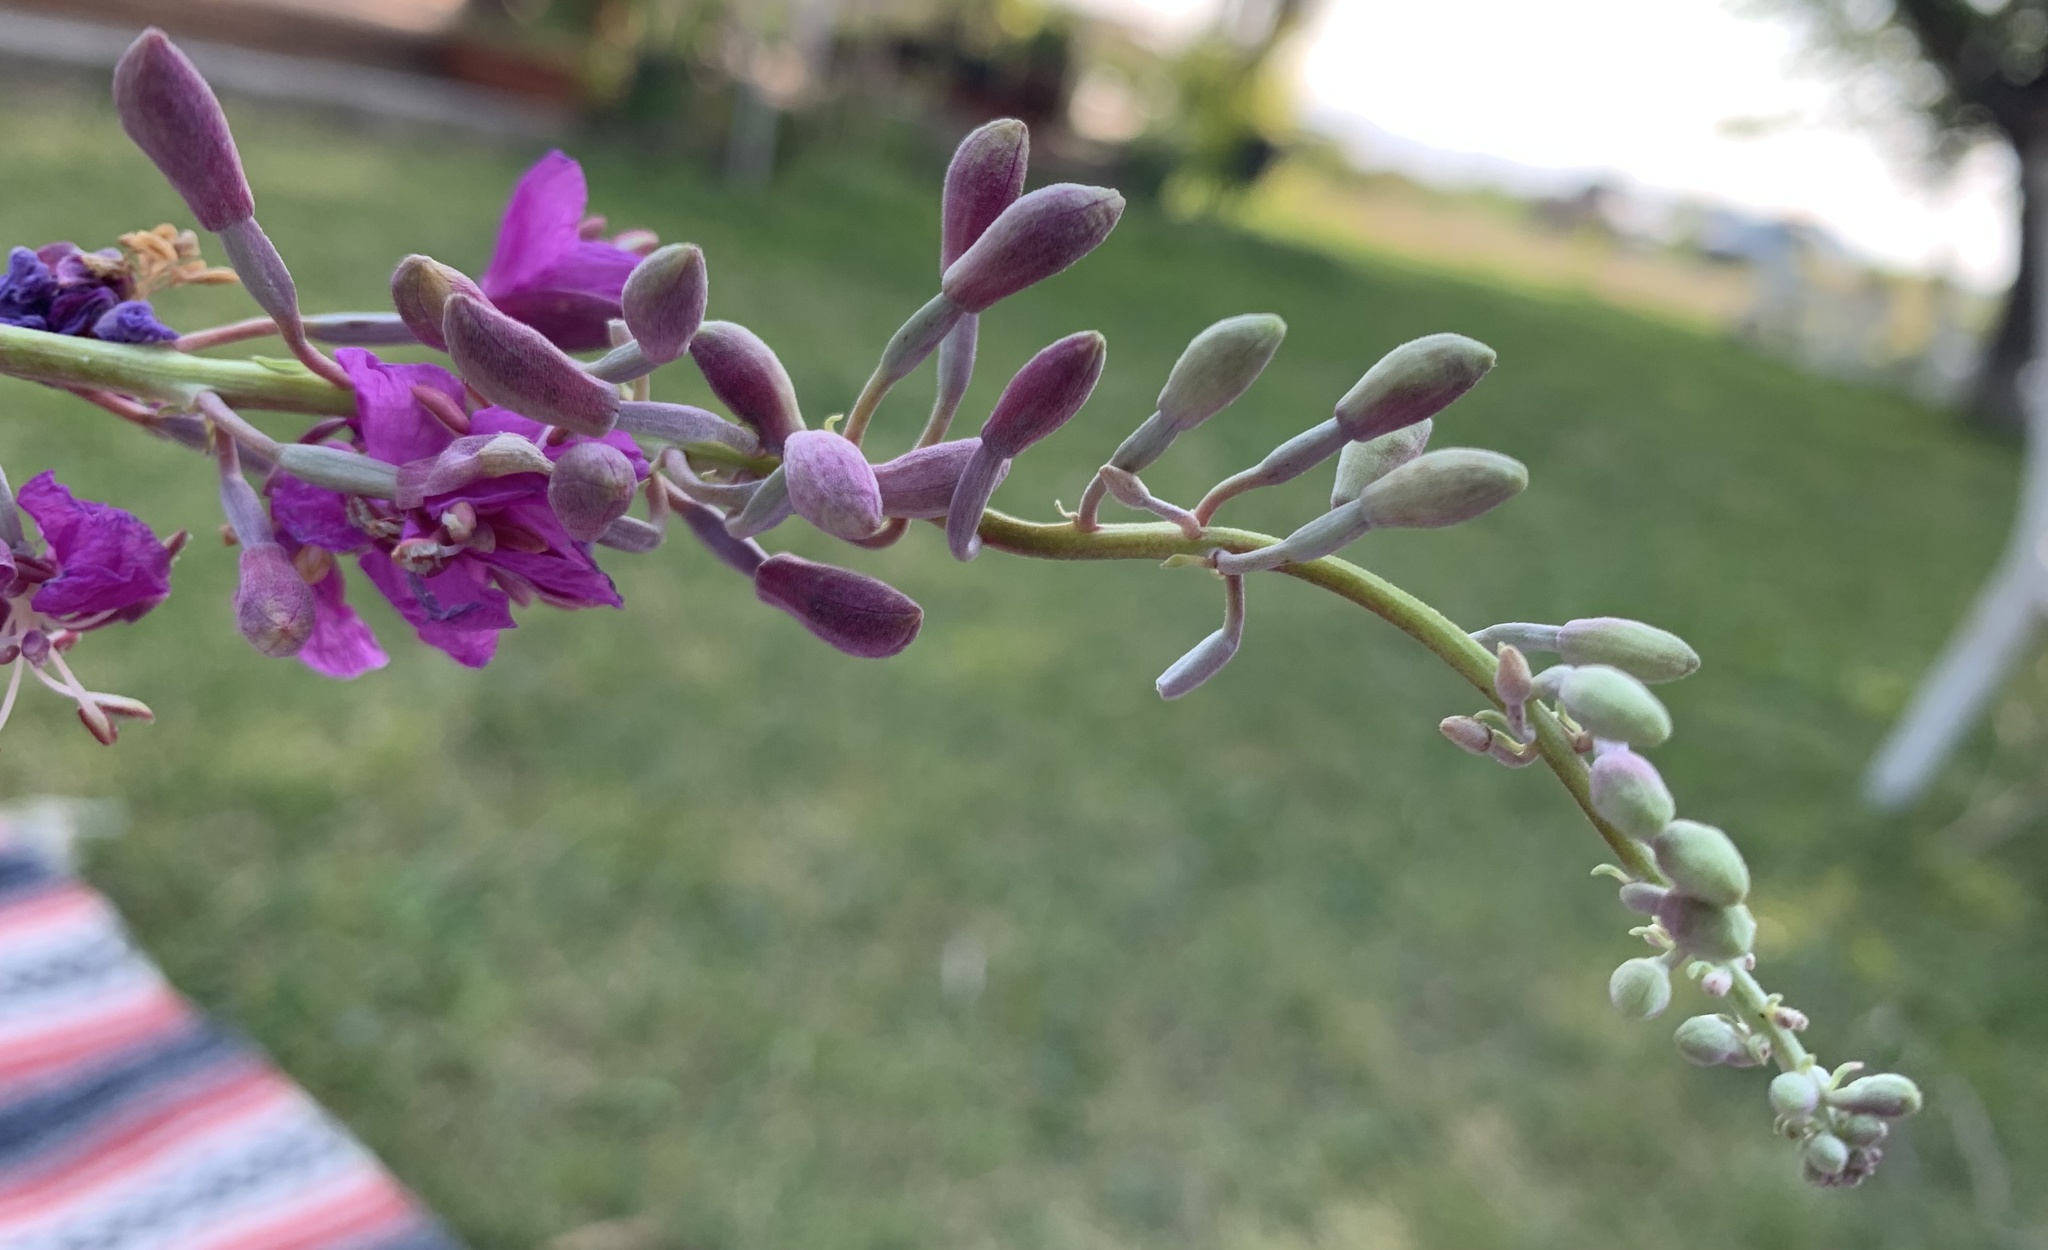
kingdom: Plantae
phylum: Tracheophyta
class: Magnoliopsida
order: Myrtales
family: Onagraceae
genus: Chamaenerion
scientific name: Chamaenerion angustifolium
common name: Fireweed
